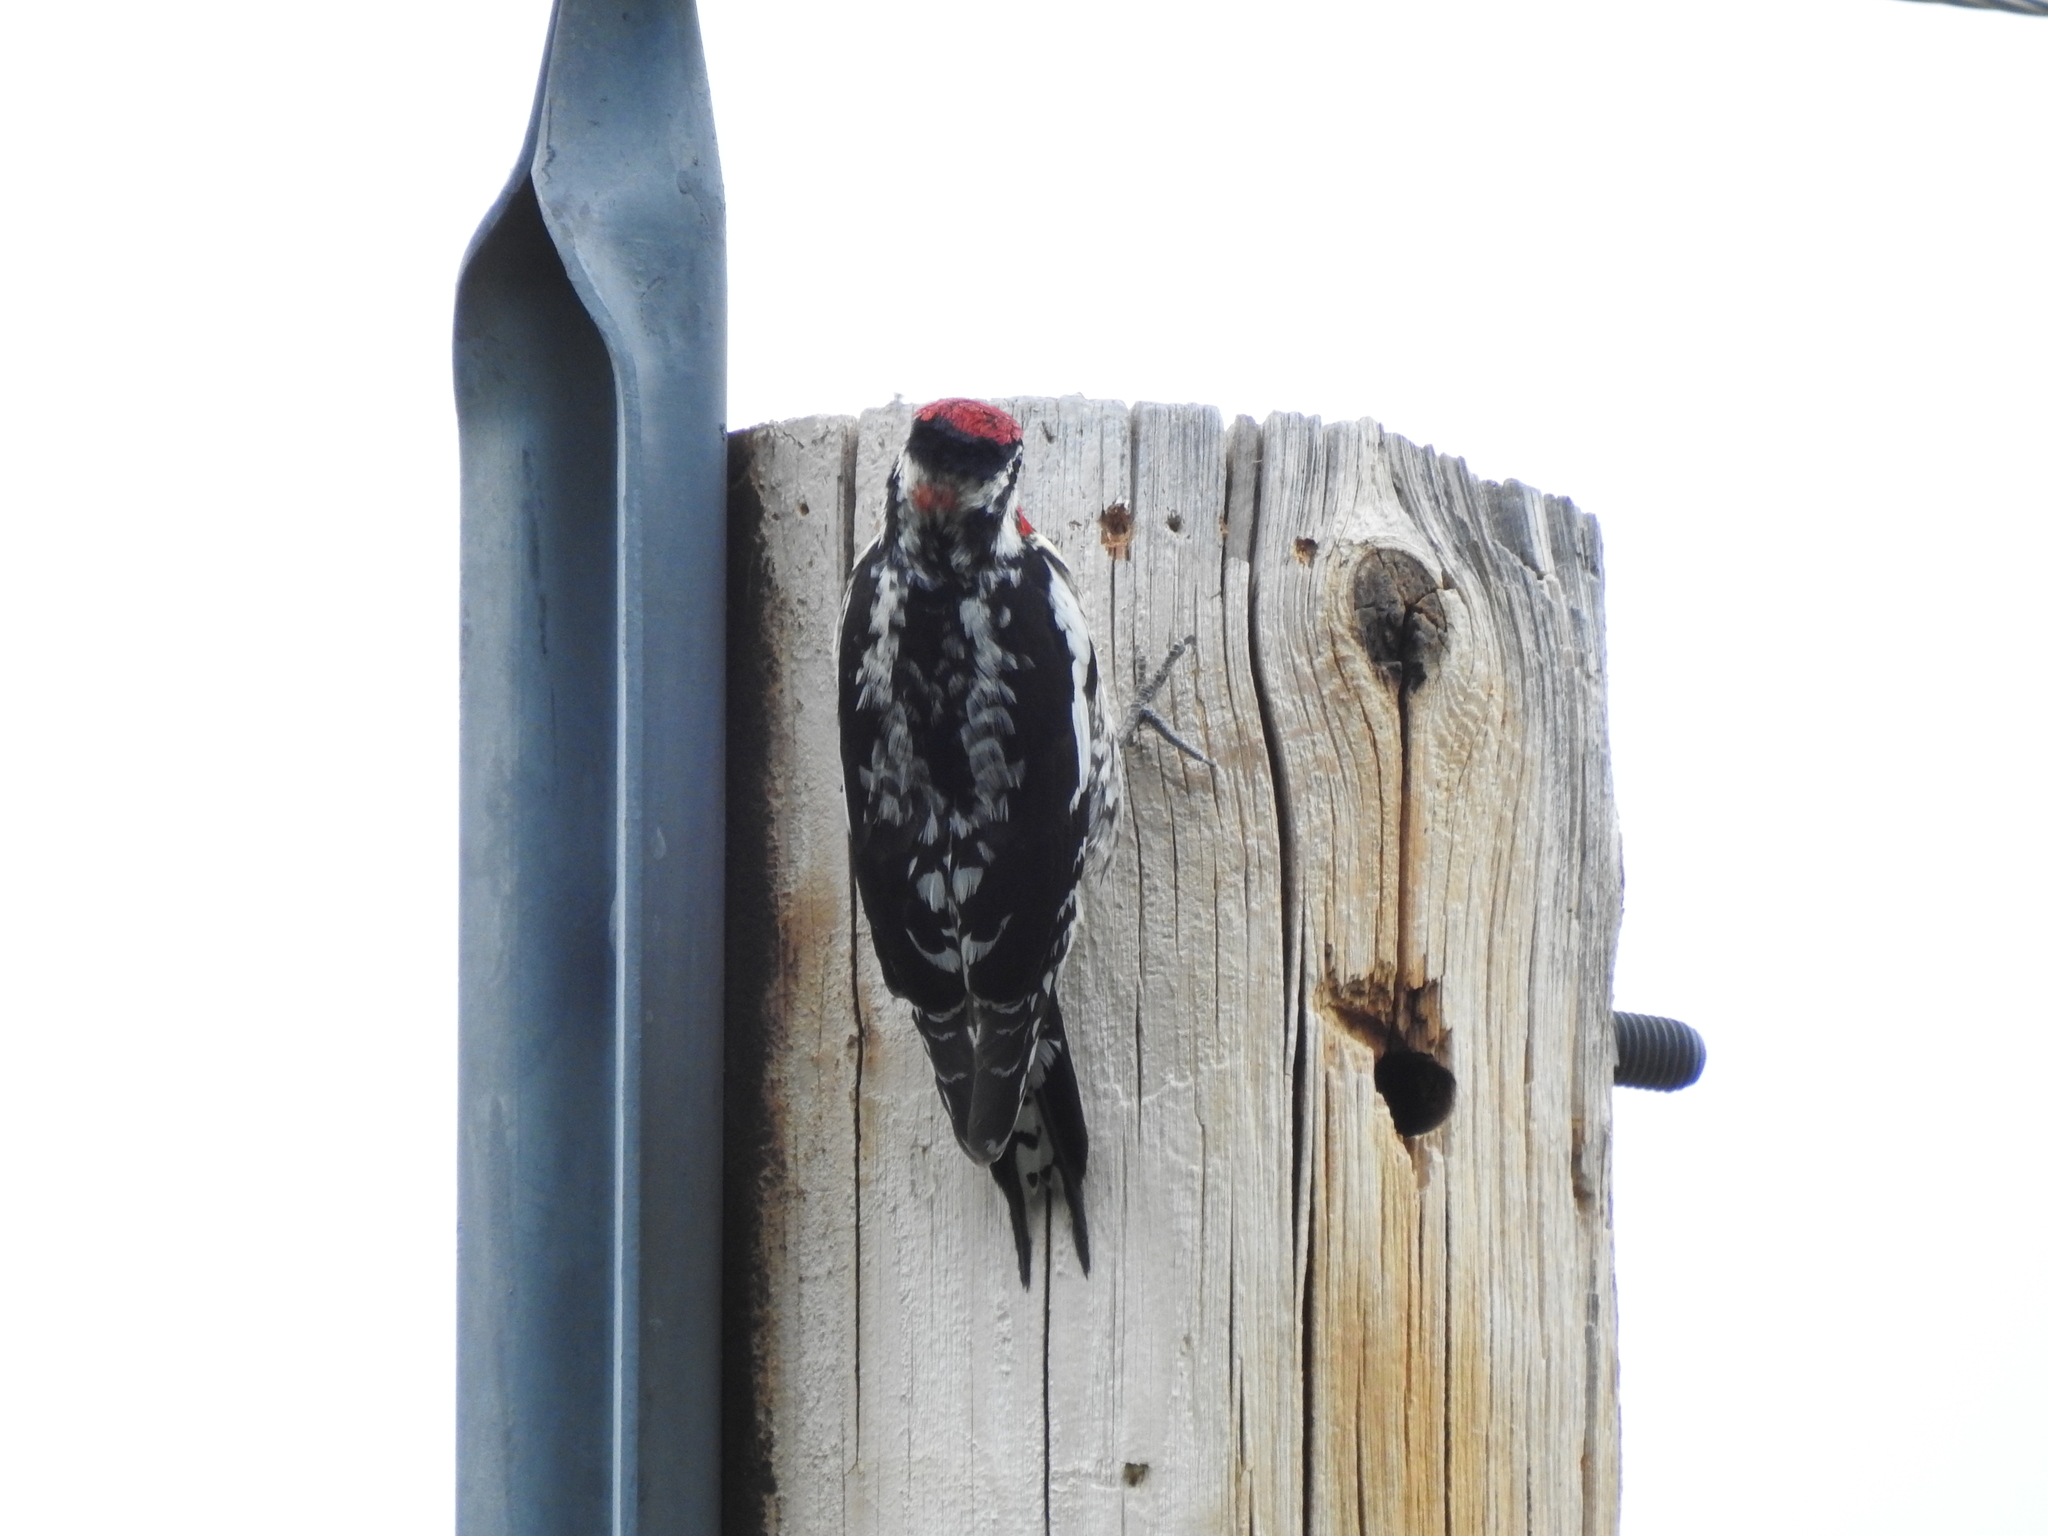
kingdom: Animalia
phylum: Chordata
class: Aves
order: Piciformes
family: Picidae
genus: Sphyrapicus
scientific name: Sphyrapicus nuchalis
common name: Red-naped sapsucker
